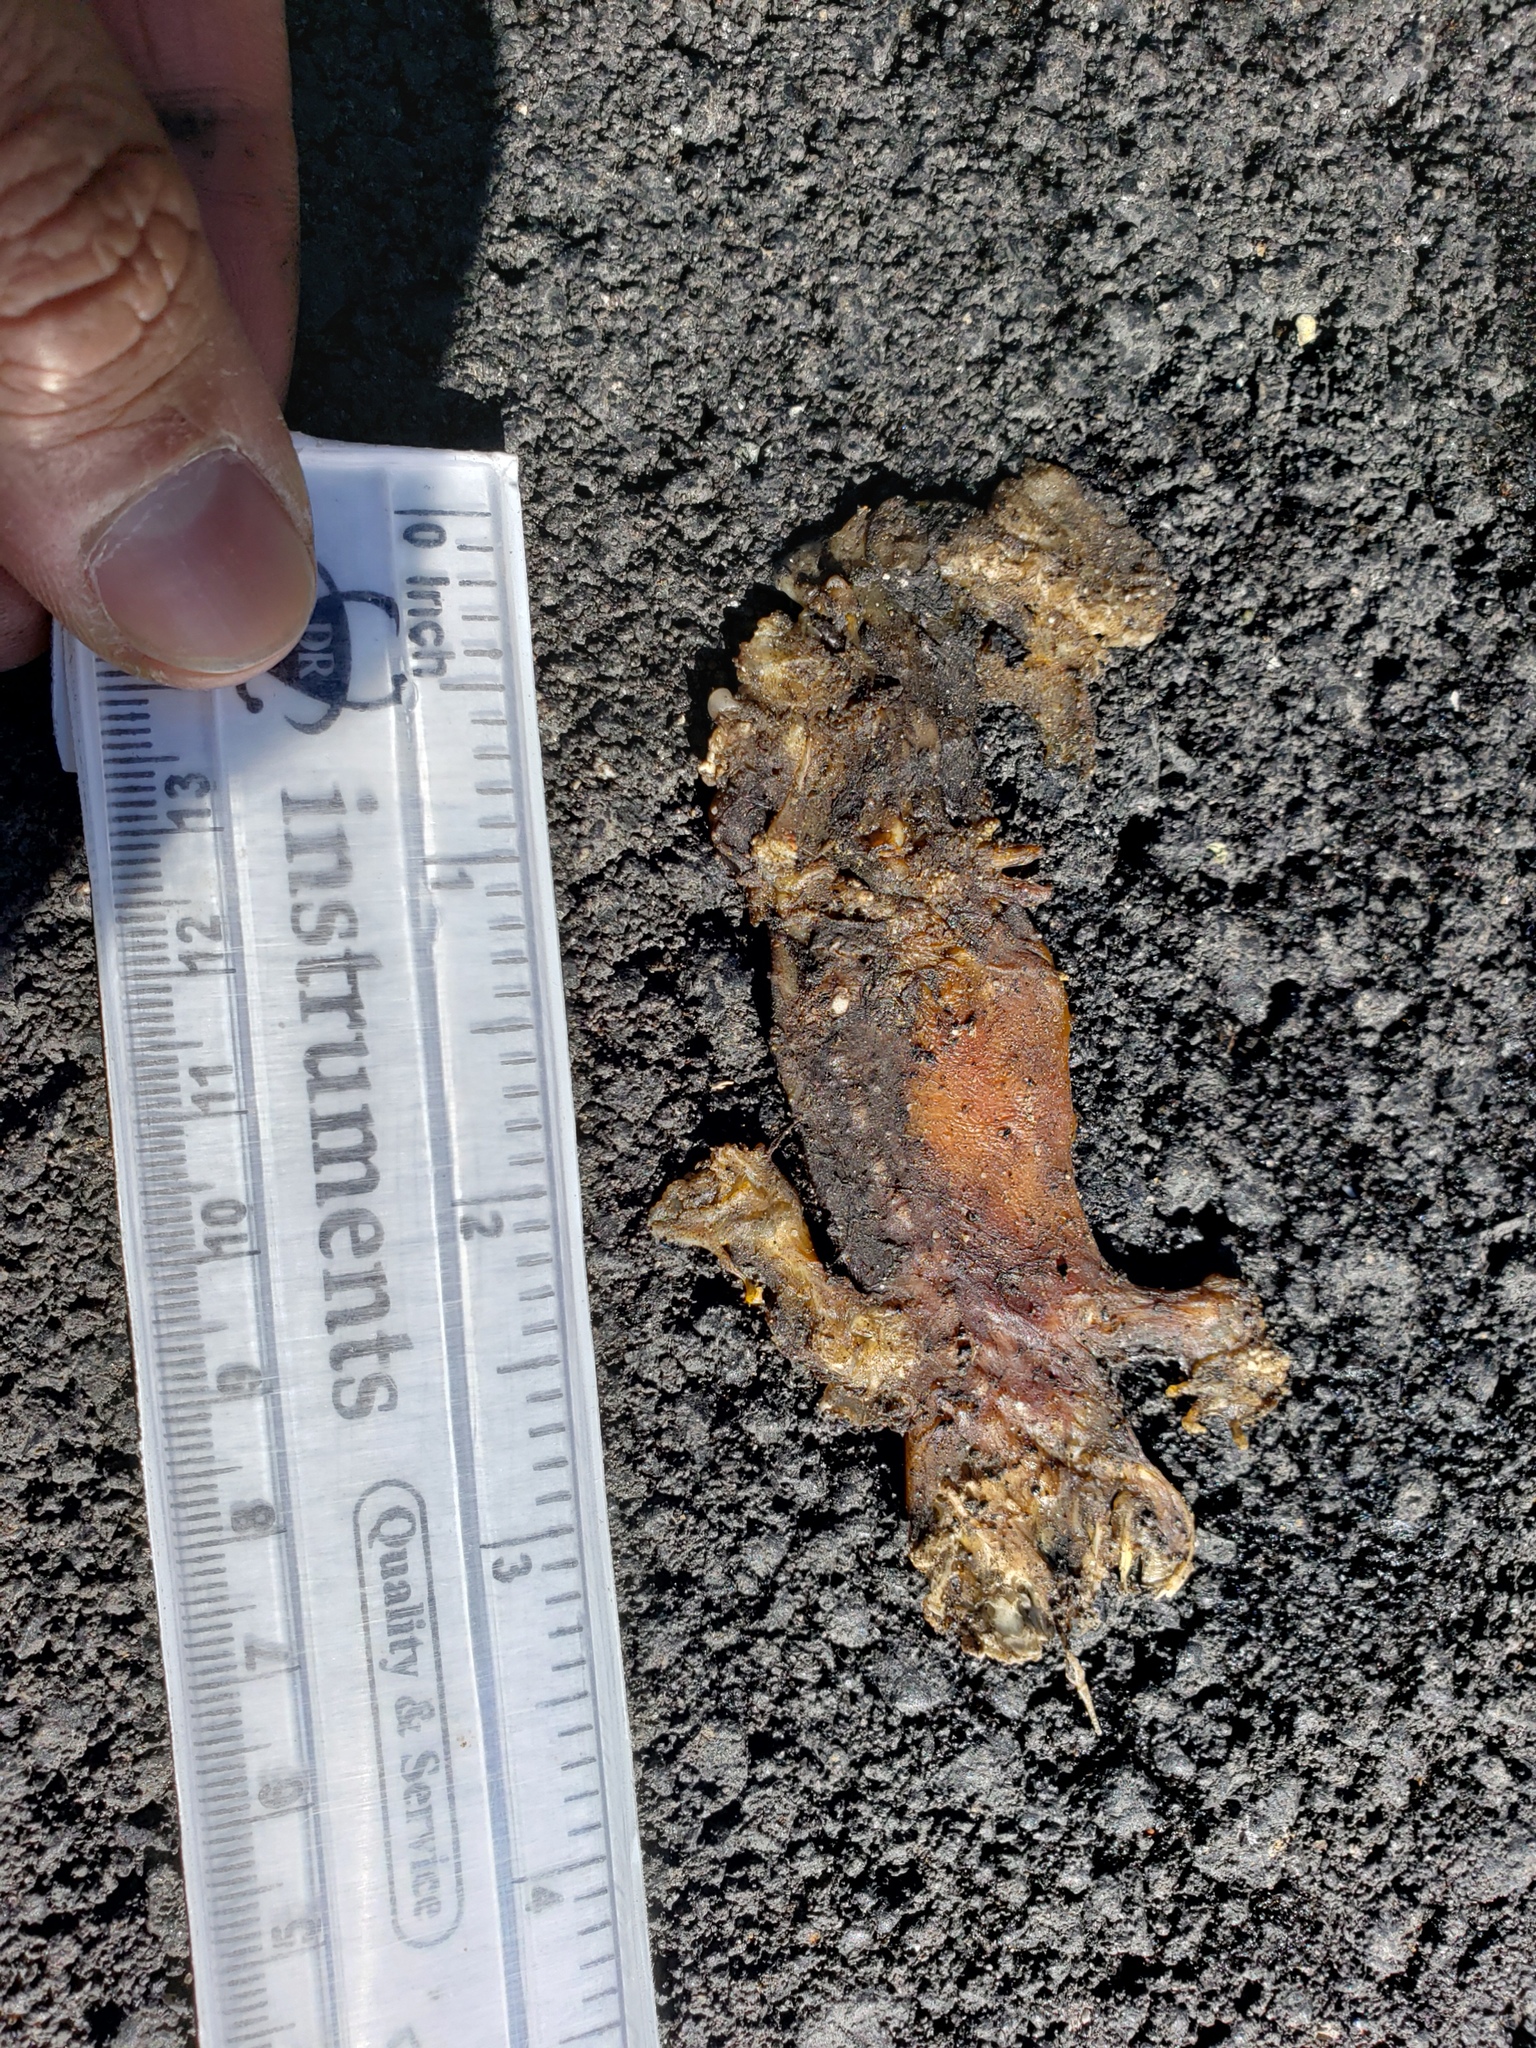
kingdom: Animalia
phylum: Chordata
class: Amphibia
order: Caudata
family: Salamandridae
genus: Taricha
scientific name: Taricha
